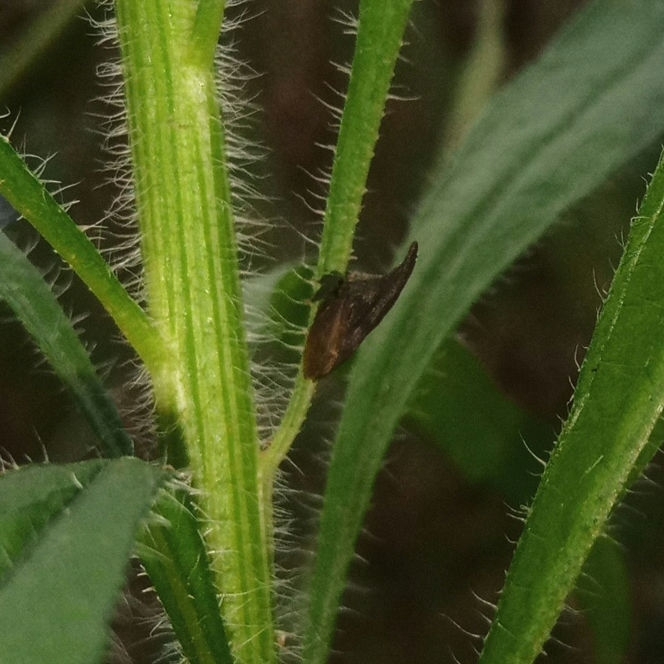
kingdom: Animalia
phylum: Arthropoda
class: Insecta
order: Hemiptera
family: Membracidae
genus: Enchenopa
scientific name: Enchenopa latipes
